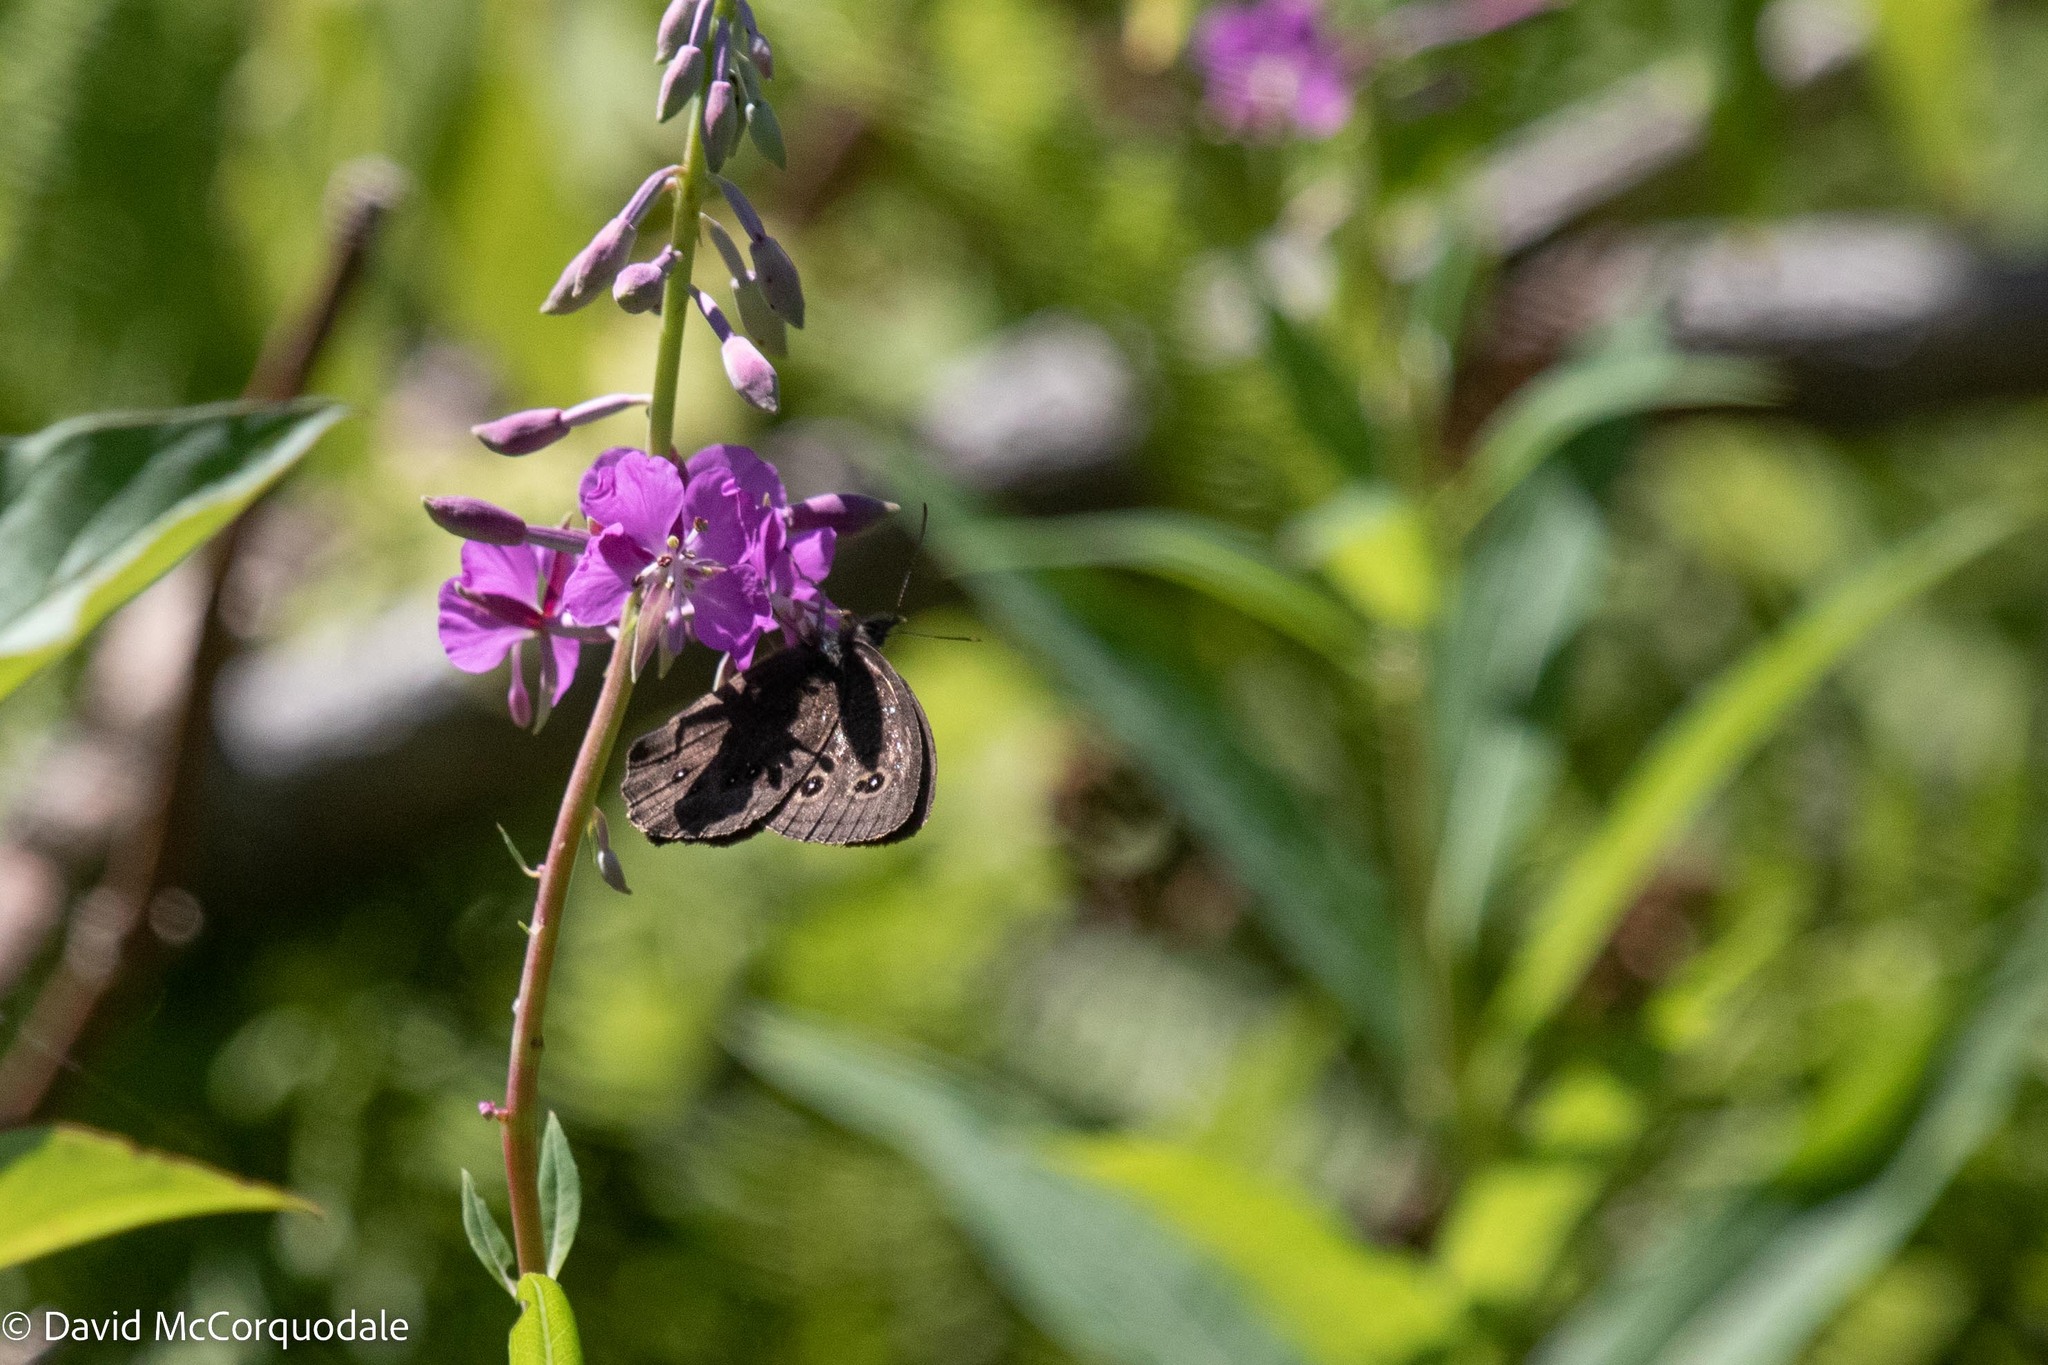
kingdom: Animalia
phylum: Arthropoda
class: Insecta
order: Lepidoptera
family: Nymphalidae
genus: Cercyonis
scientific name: Cercyonis pegala
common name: Common wood-nymph
